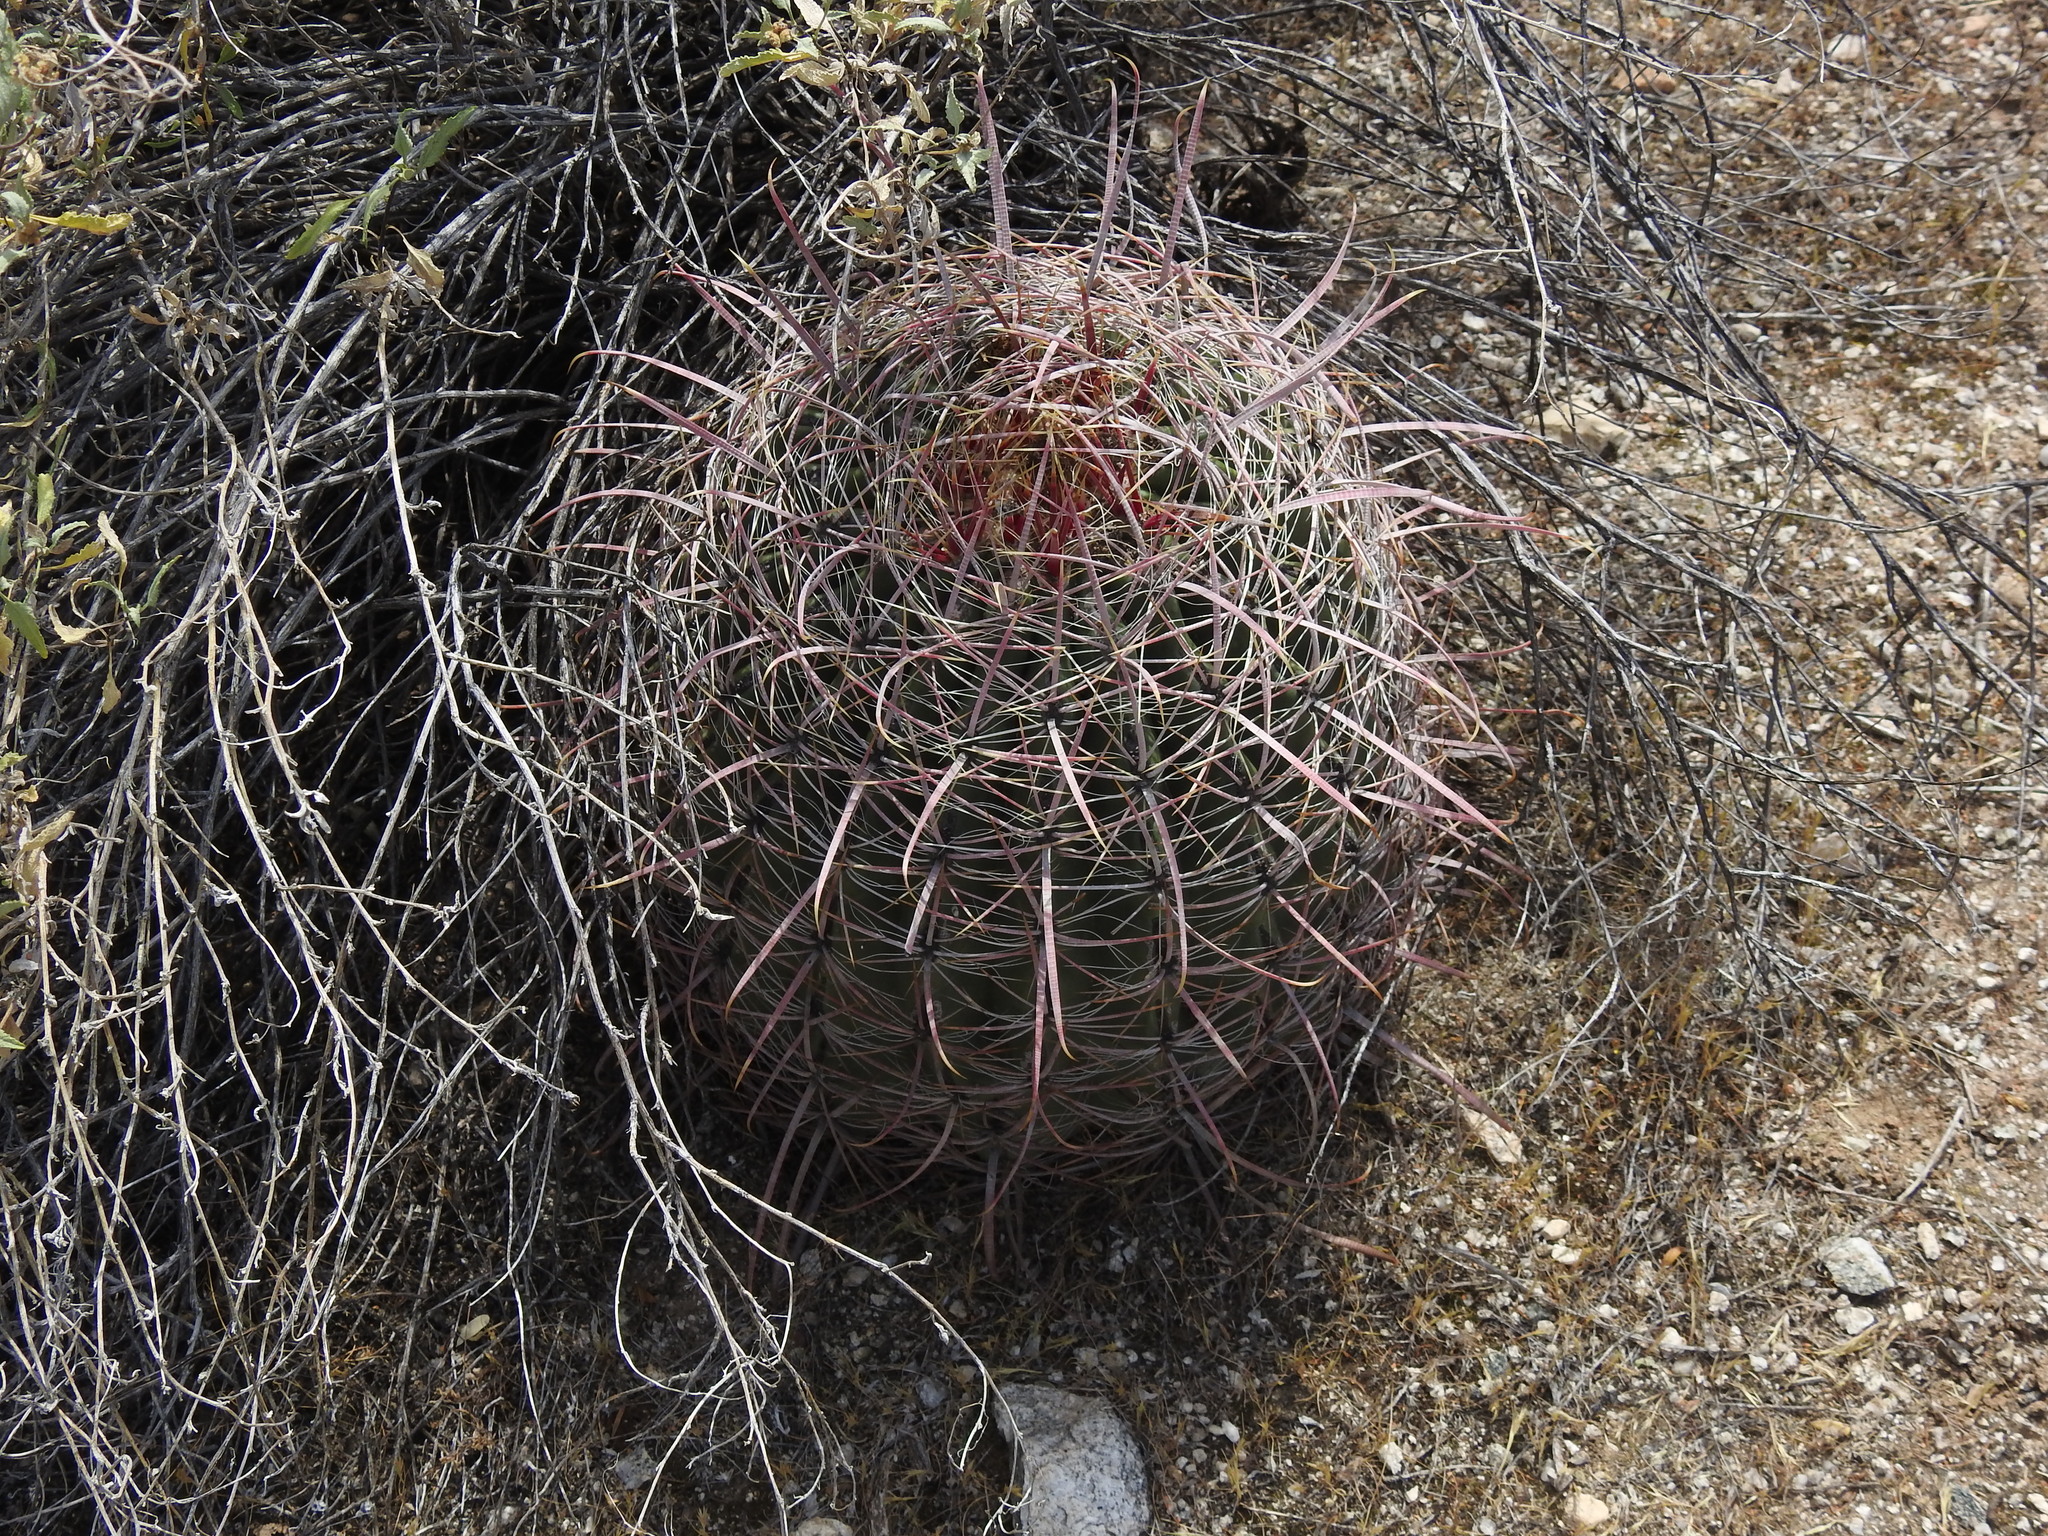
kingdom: Plantae
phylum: Tracheophyta
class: Magnoliopsida
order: Caryophyllales
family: Cactaceae
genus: Ferocactus
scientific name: Ferocactus cylindraceus
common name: California barrel cactus
